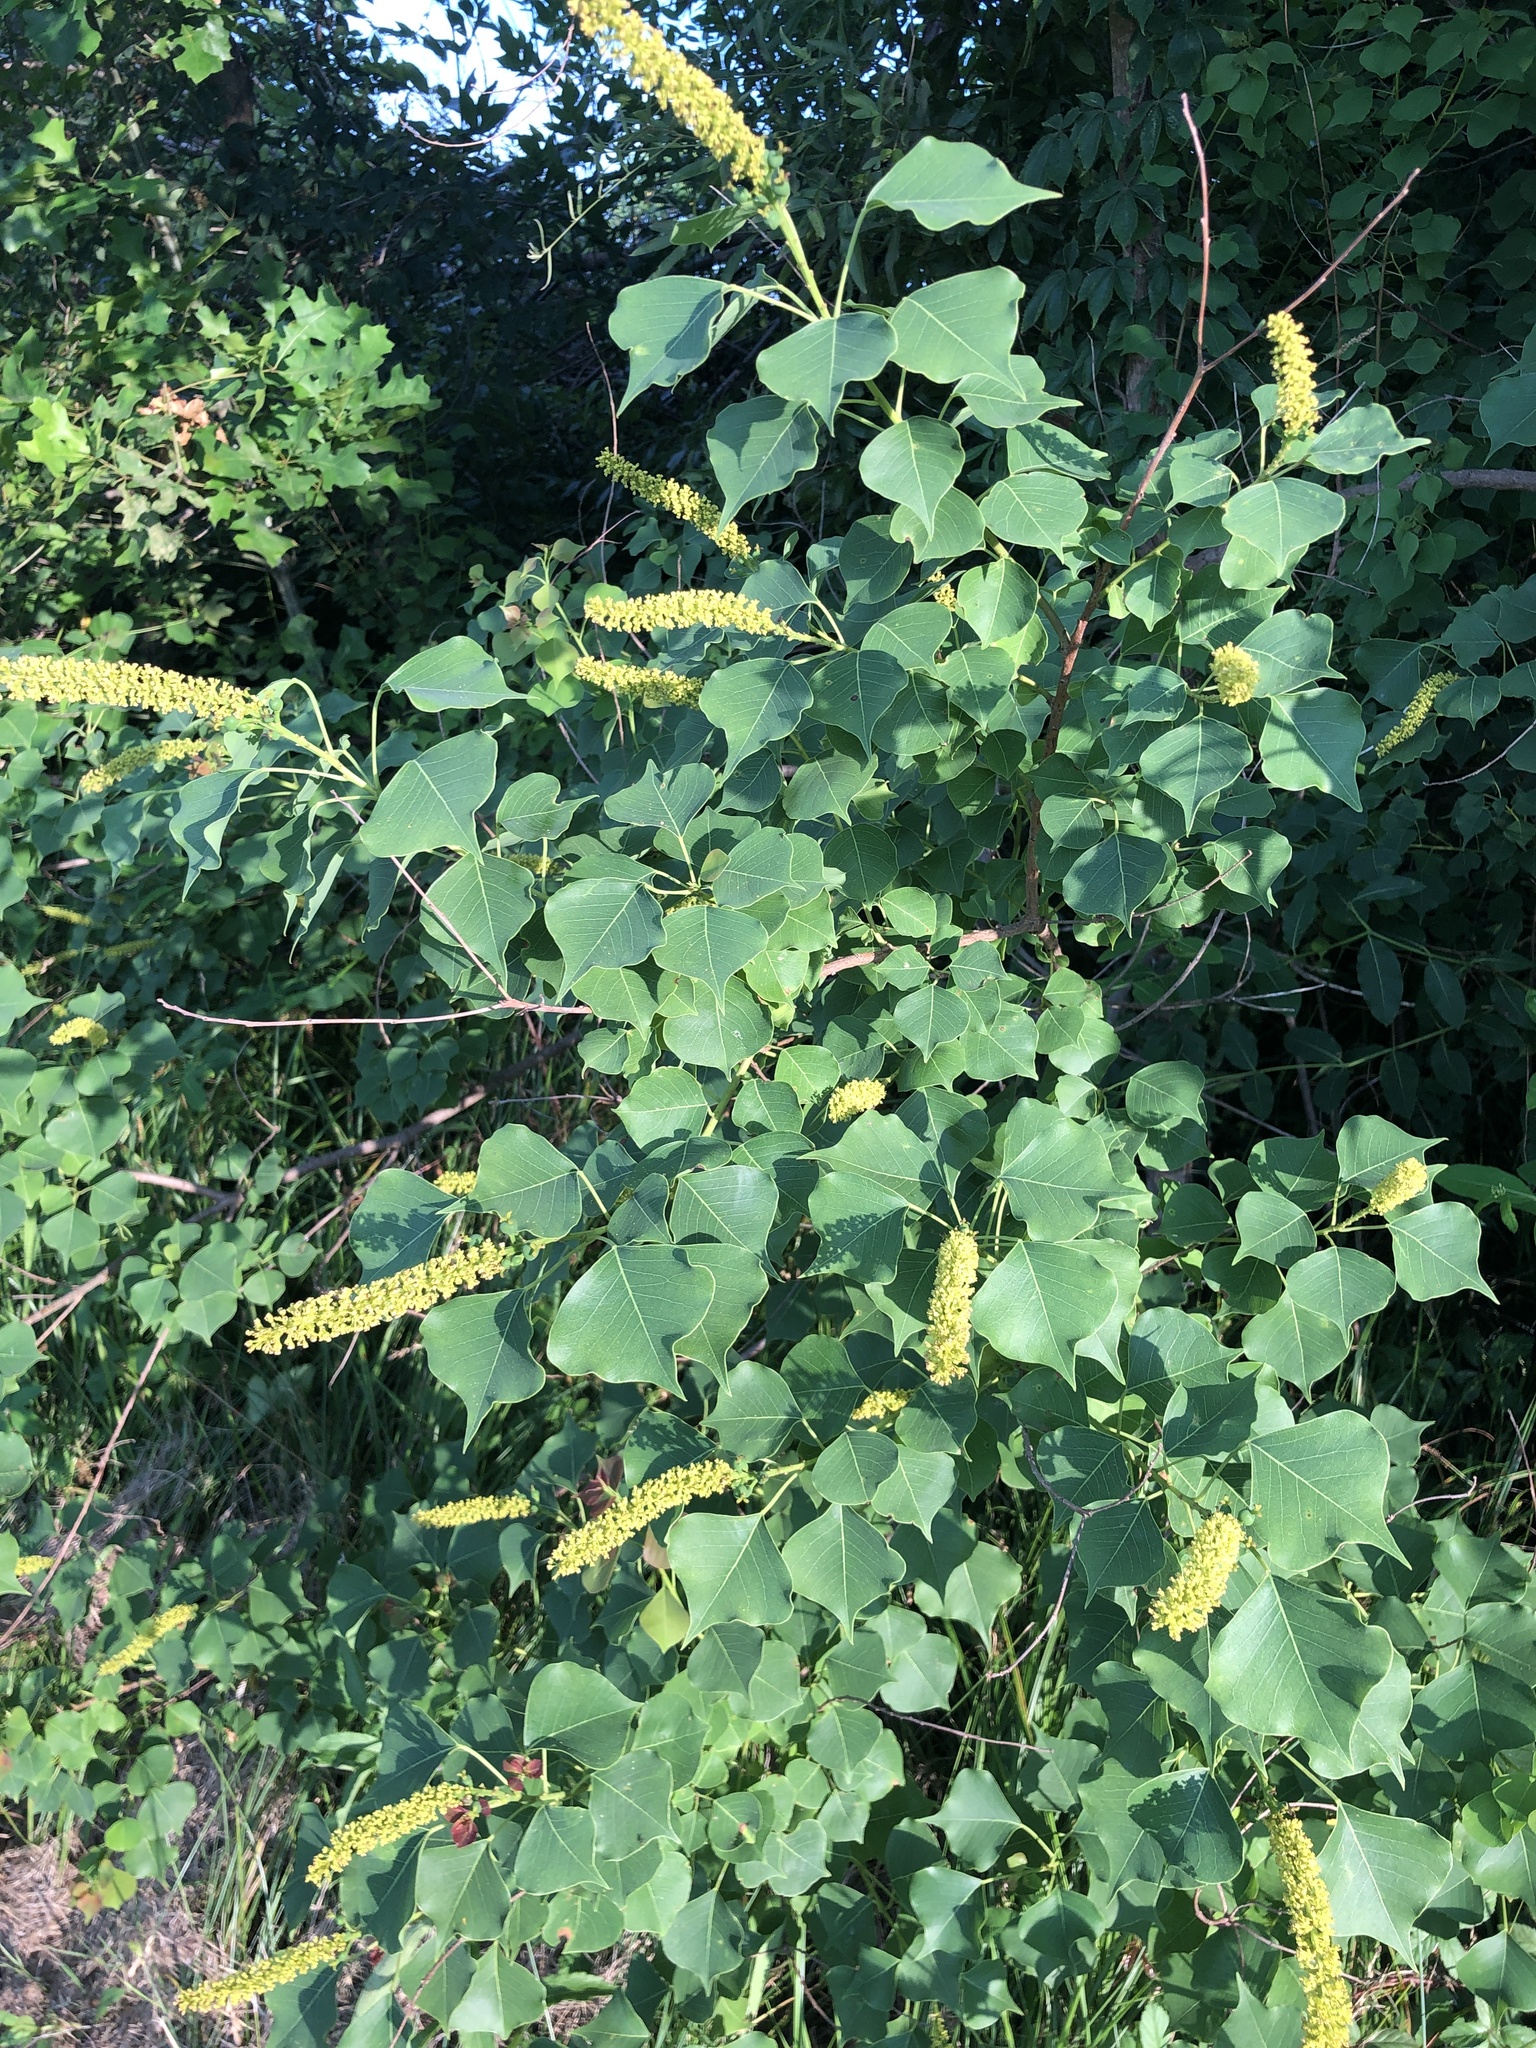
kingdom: Plantae
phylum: Tracheophyta
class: Magnoliopsida
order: Malpighiales
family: Euphorbiaceae
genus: Triadica
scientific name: Triadica sebifera
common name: Chinese tallow
